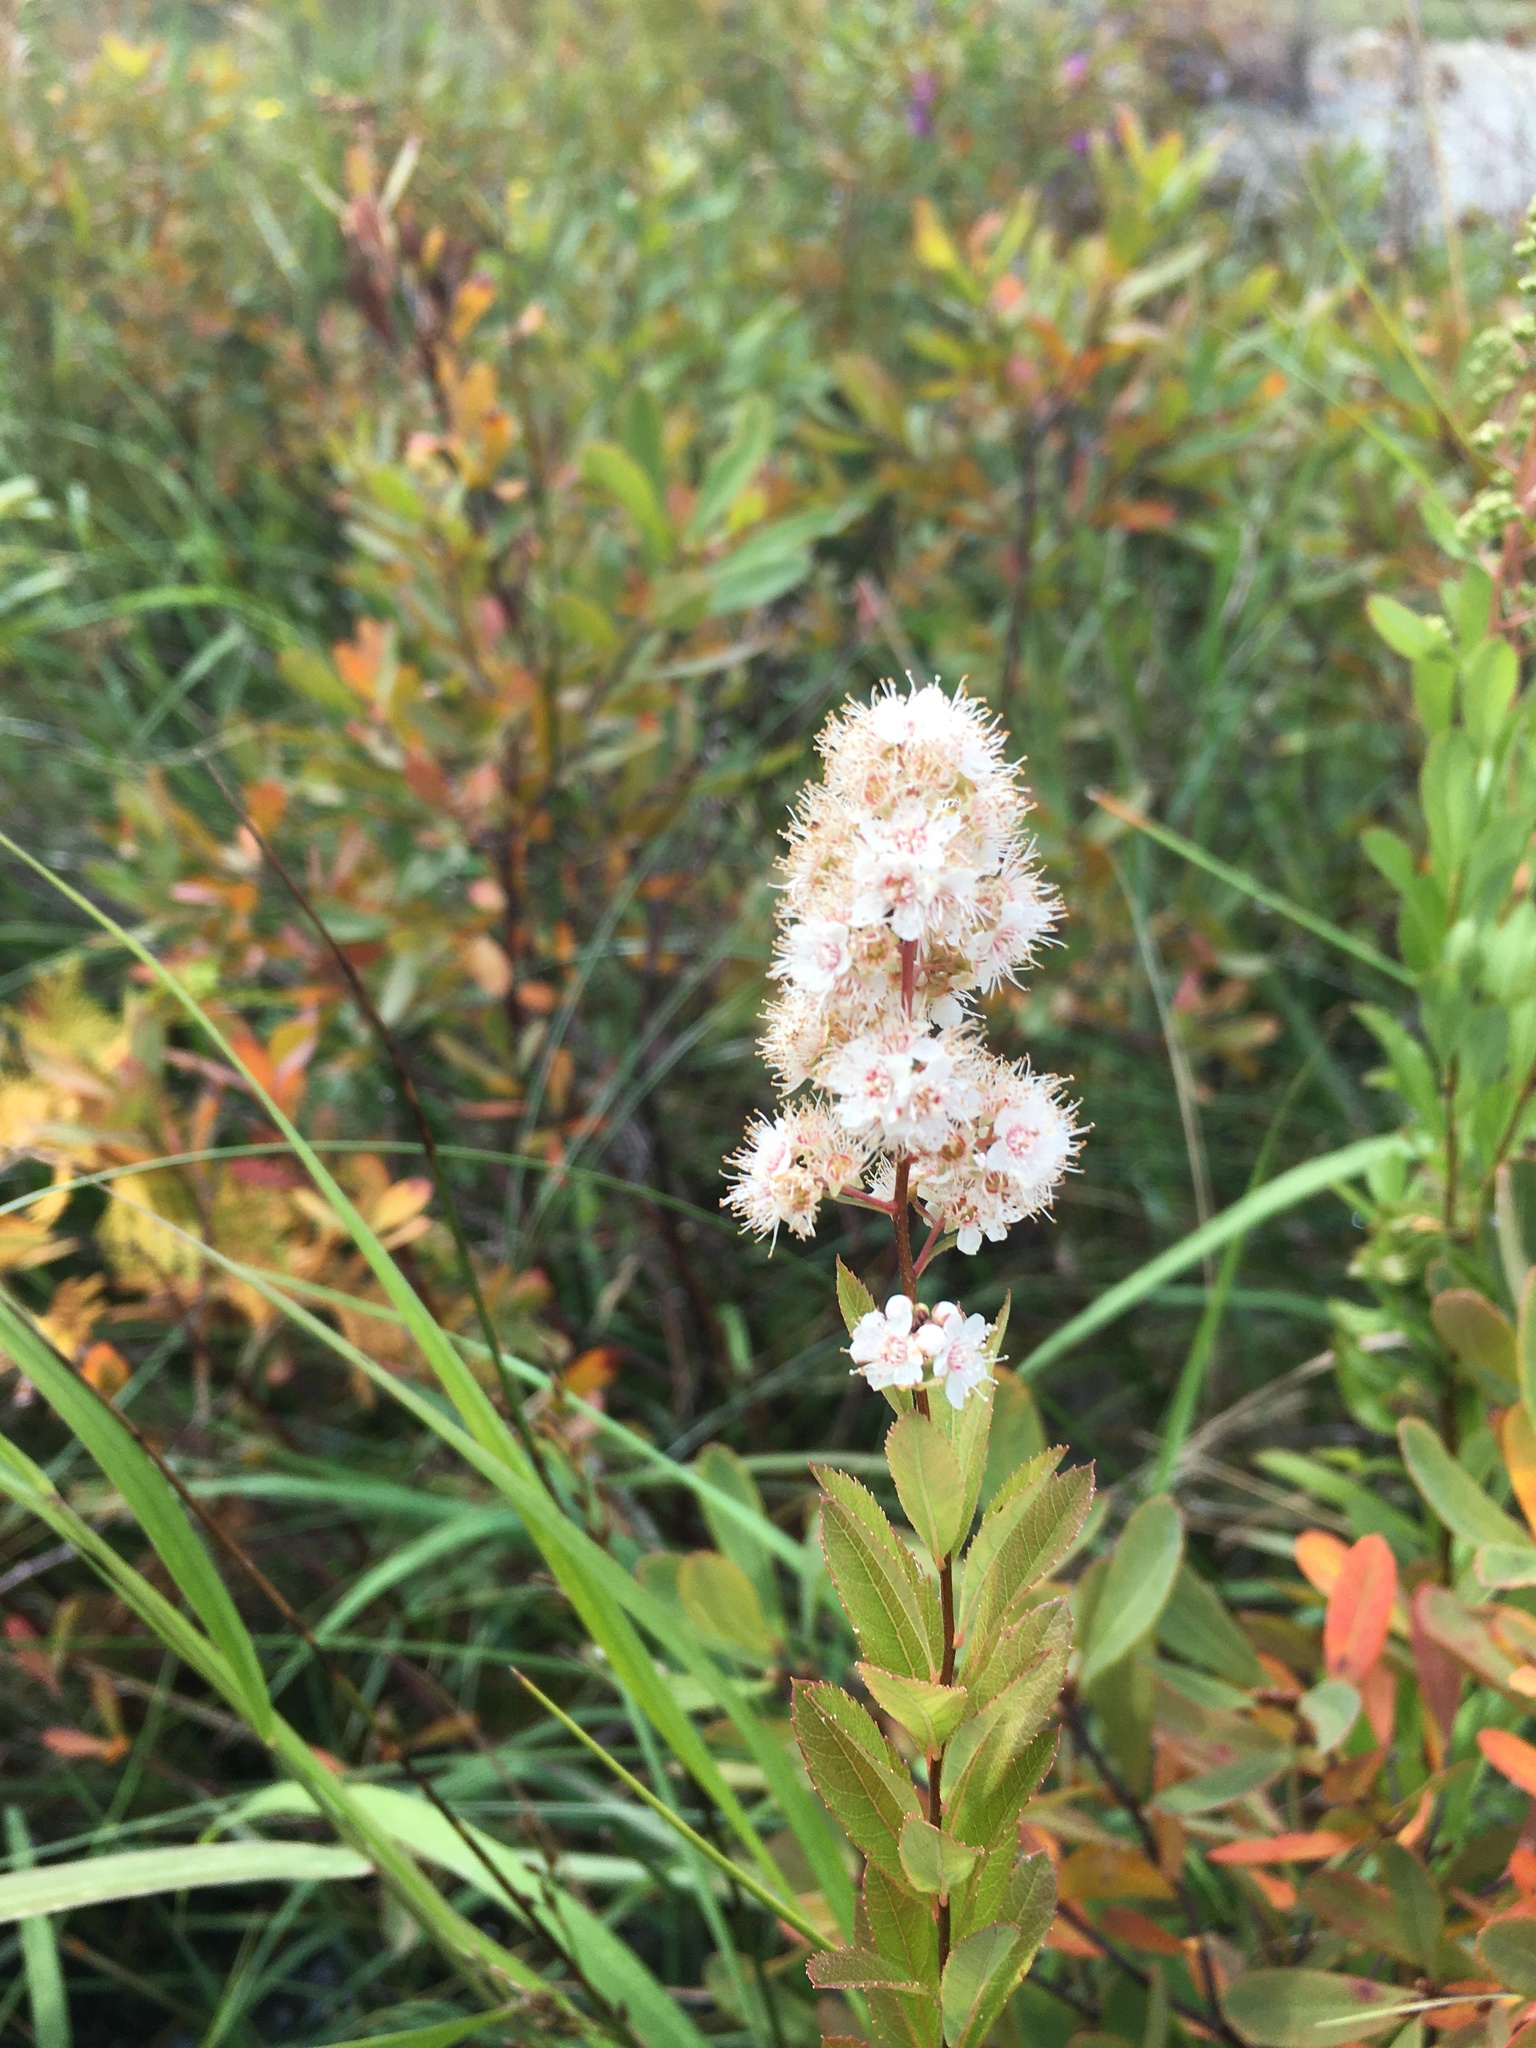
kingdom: Plantae
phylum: Tracheophyta
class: Magnoliopsida
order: Rosales
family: Rosaceae
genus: Spiraea
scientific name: Spiraea alba
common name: Pale bridewort
